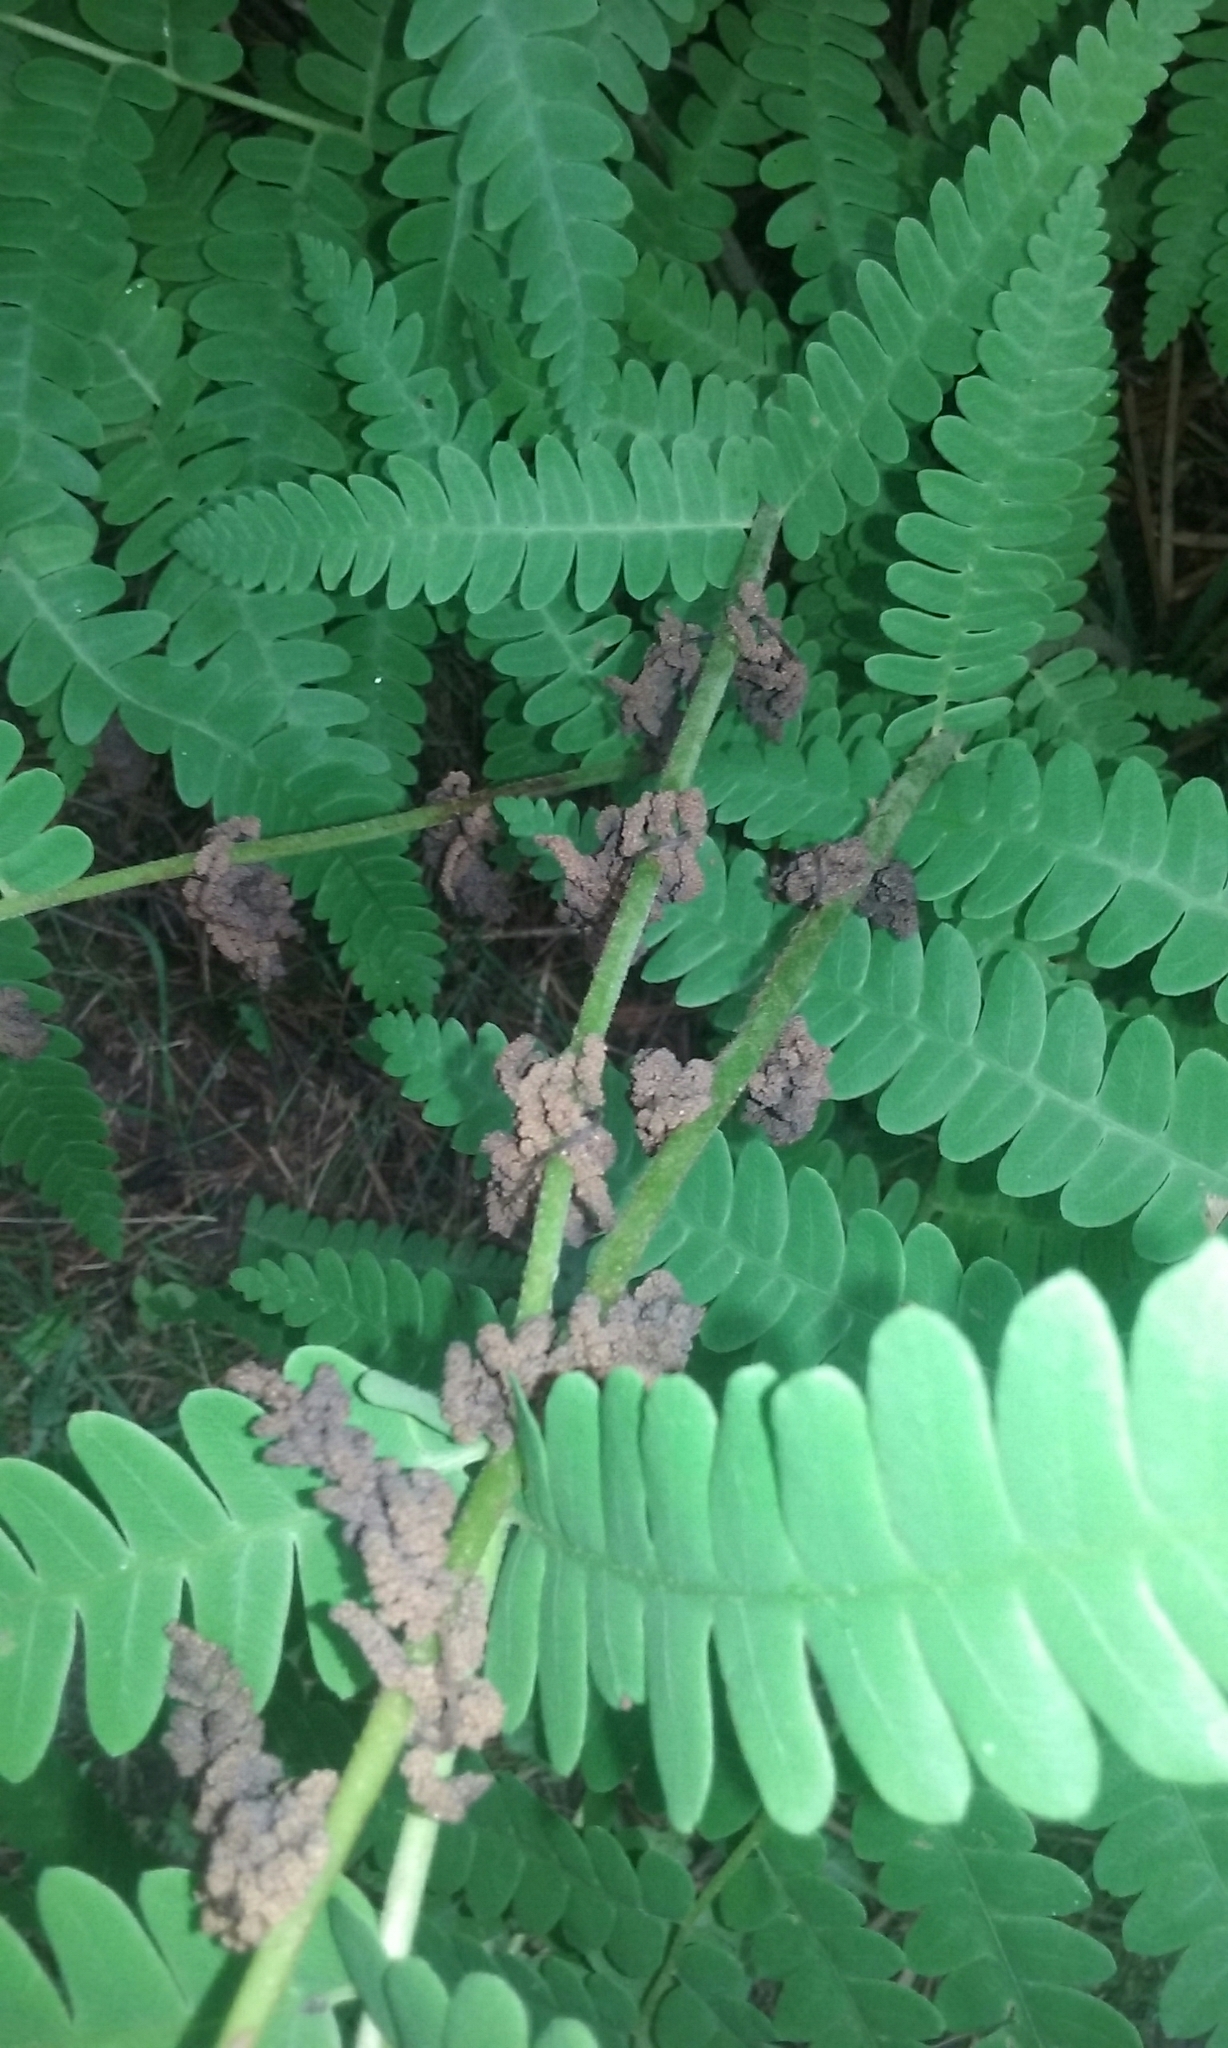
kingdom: Plantae
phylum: Tracheophyta
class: Polypodiopsida
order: Osmundales
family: Osmundaceae
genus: Claytosmunda
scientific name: Claytosmunda claytoniana
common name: Clayton's fern
